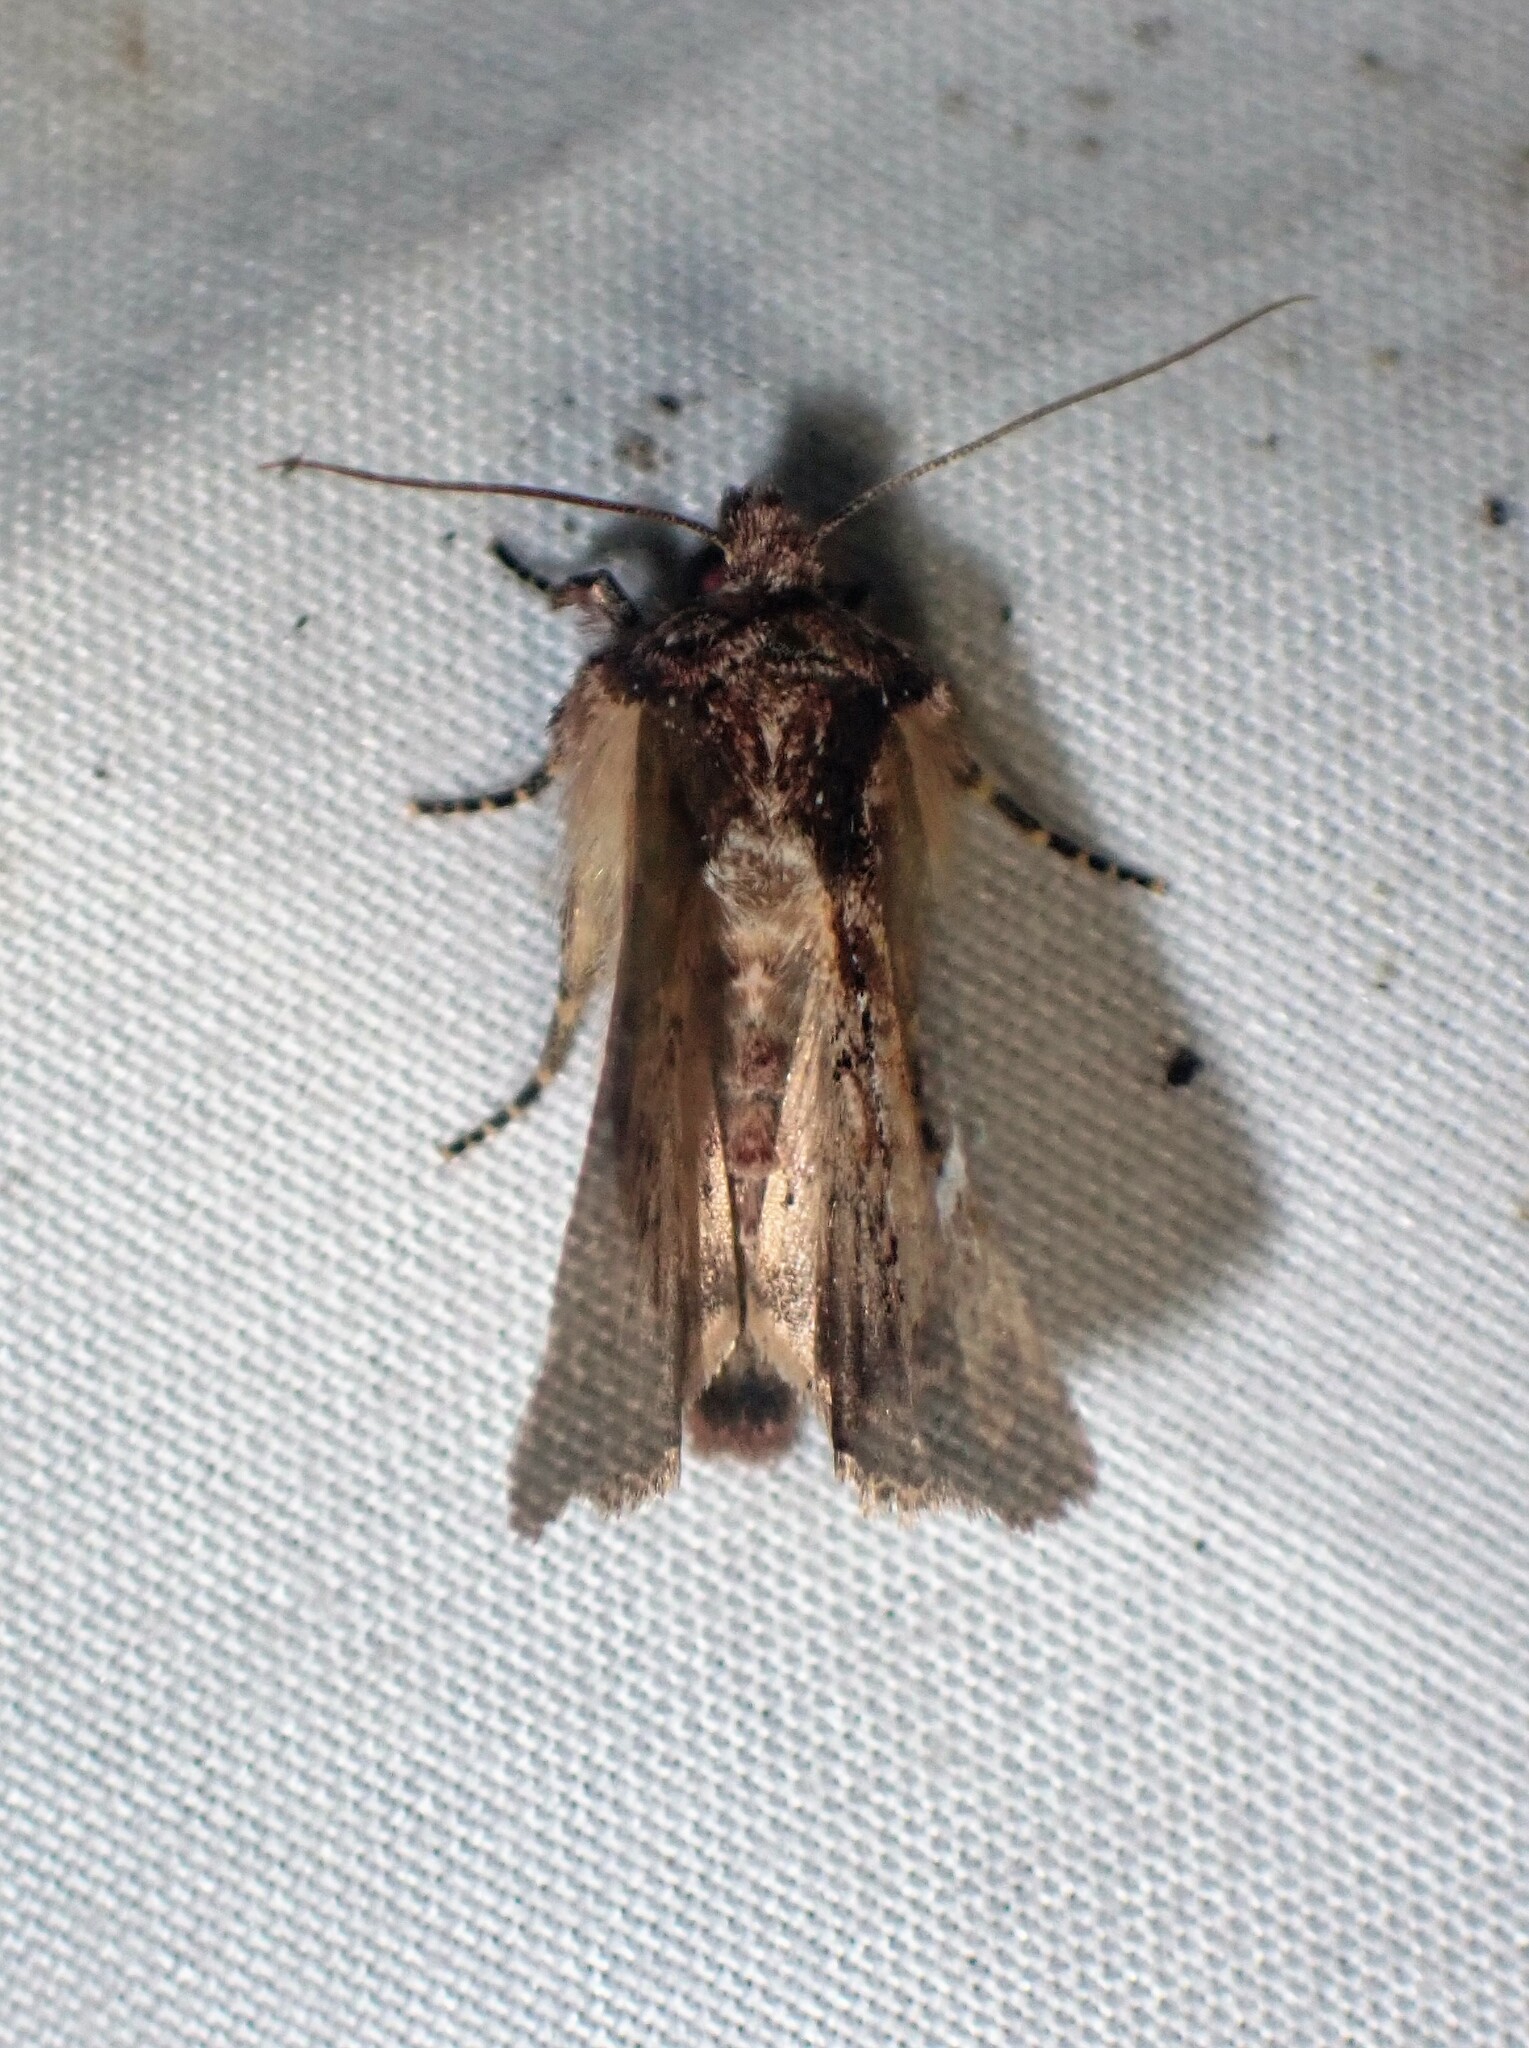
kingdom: Animalia
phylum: Arthropoda
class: Insecta
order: Lepidoptera
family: Noctuidae
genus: Mesapamea
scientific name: Mesapamea storai
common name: Owlet moth
